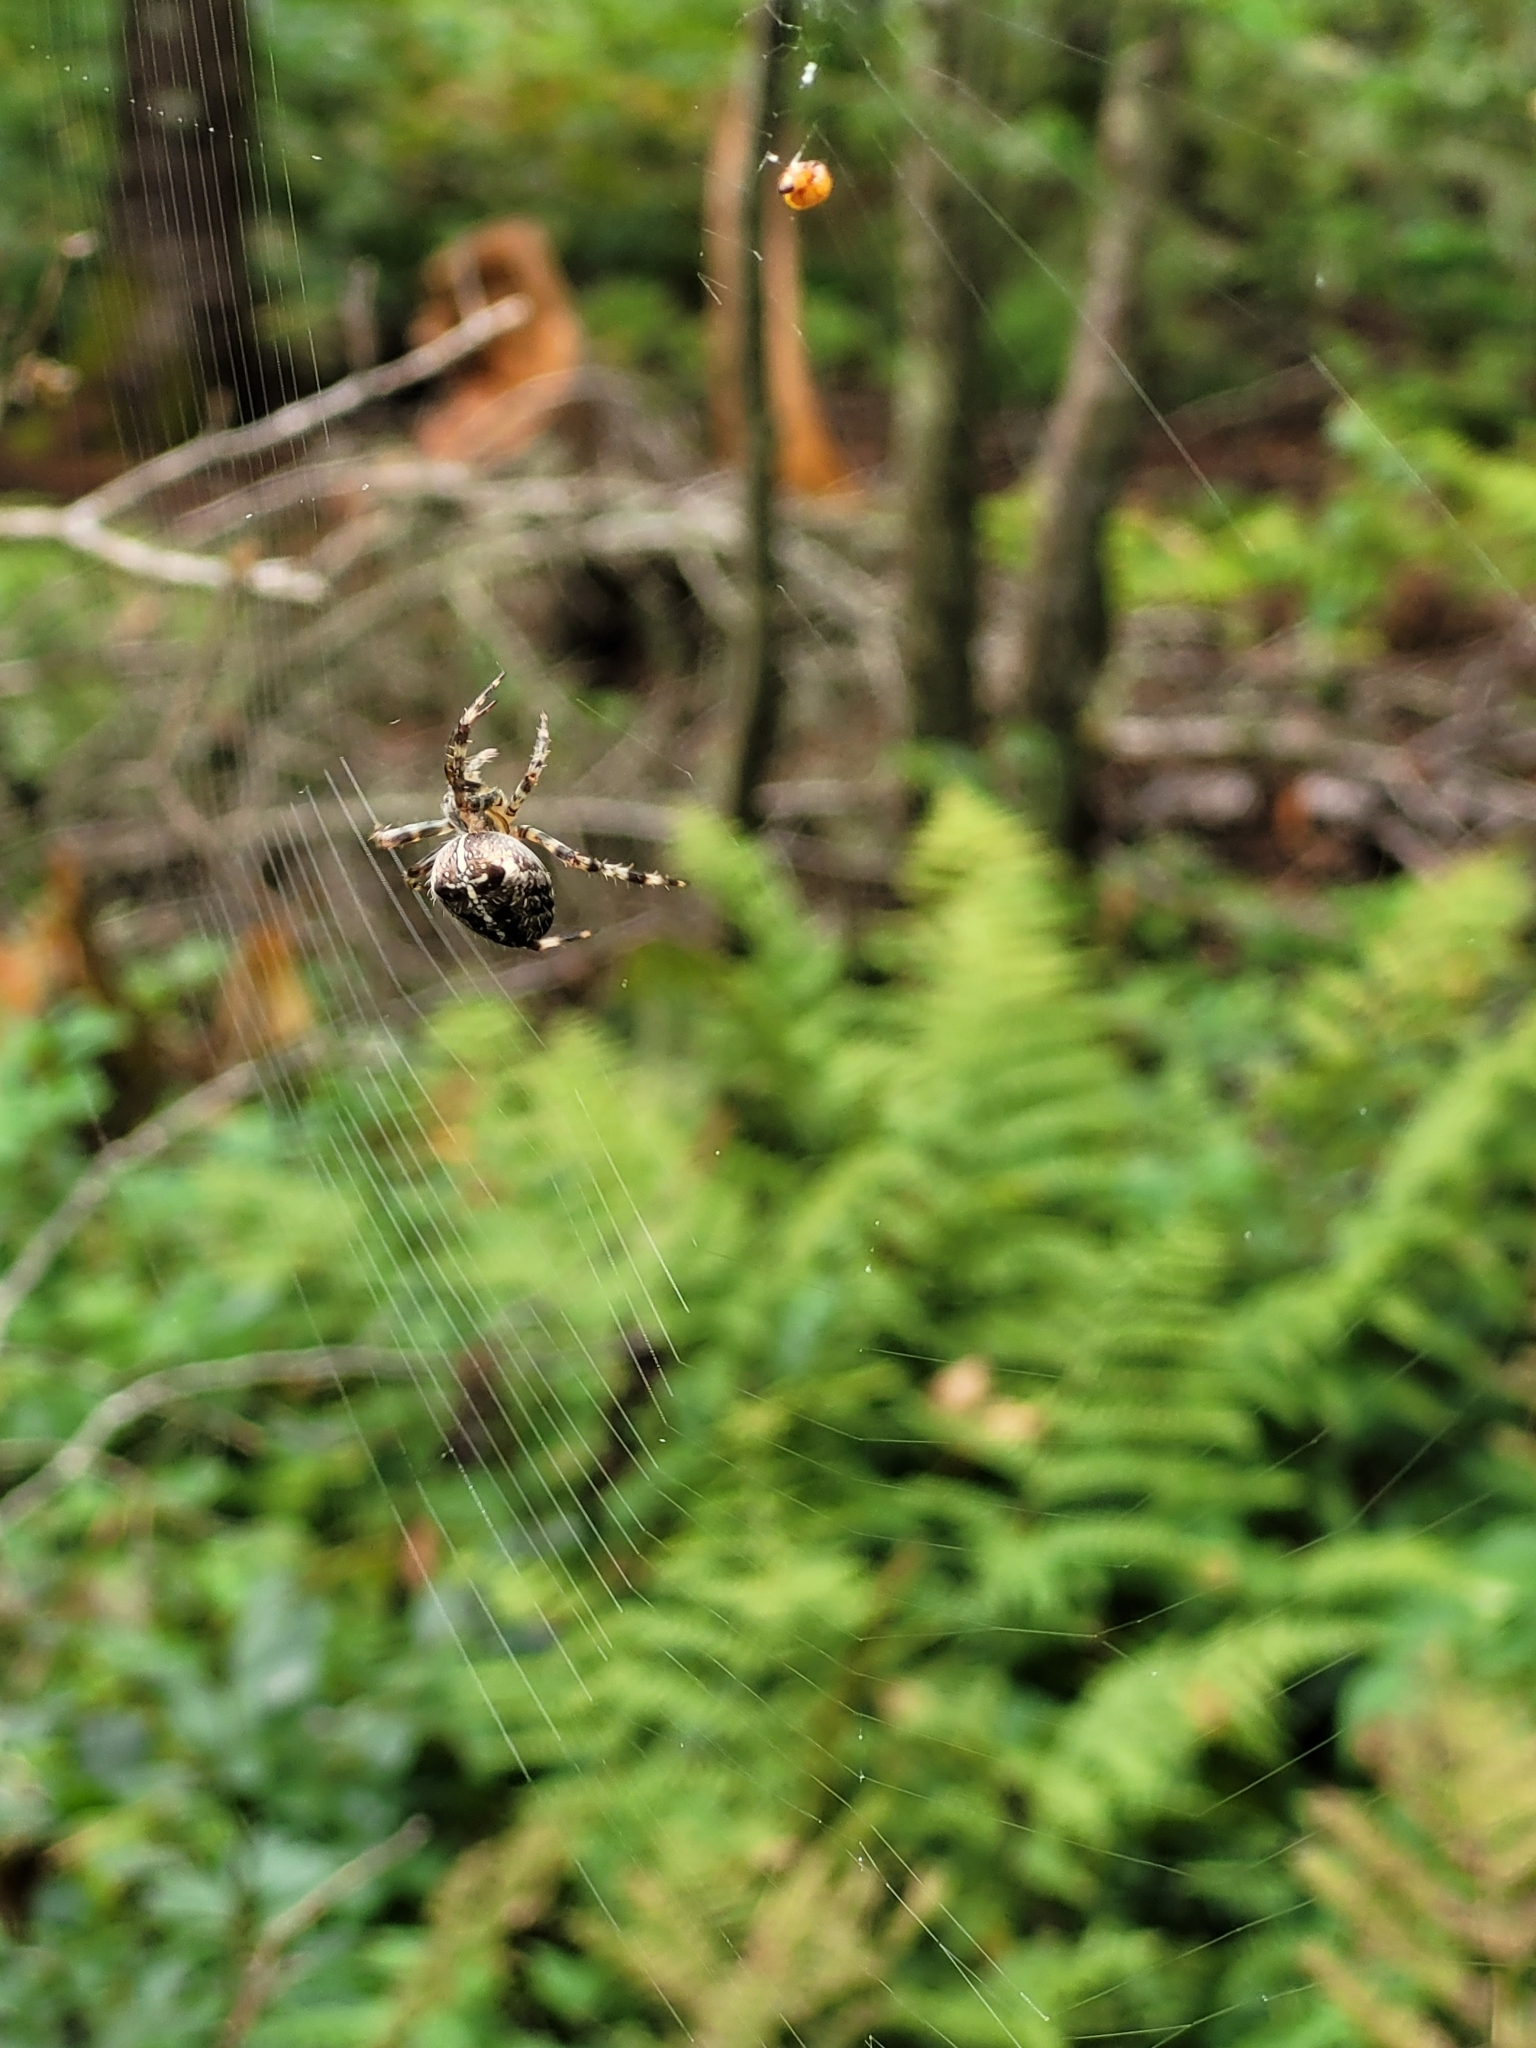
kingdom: Animalia
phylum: Arthropoda
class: Arachnida
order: Araneae
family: Araneidae
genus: Araneus
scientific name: Araneus diadematus
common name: Cross orbweaver
